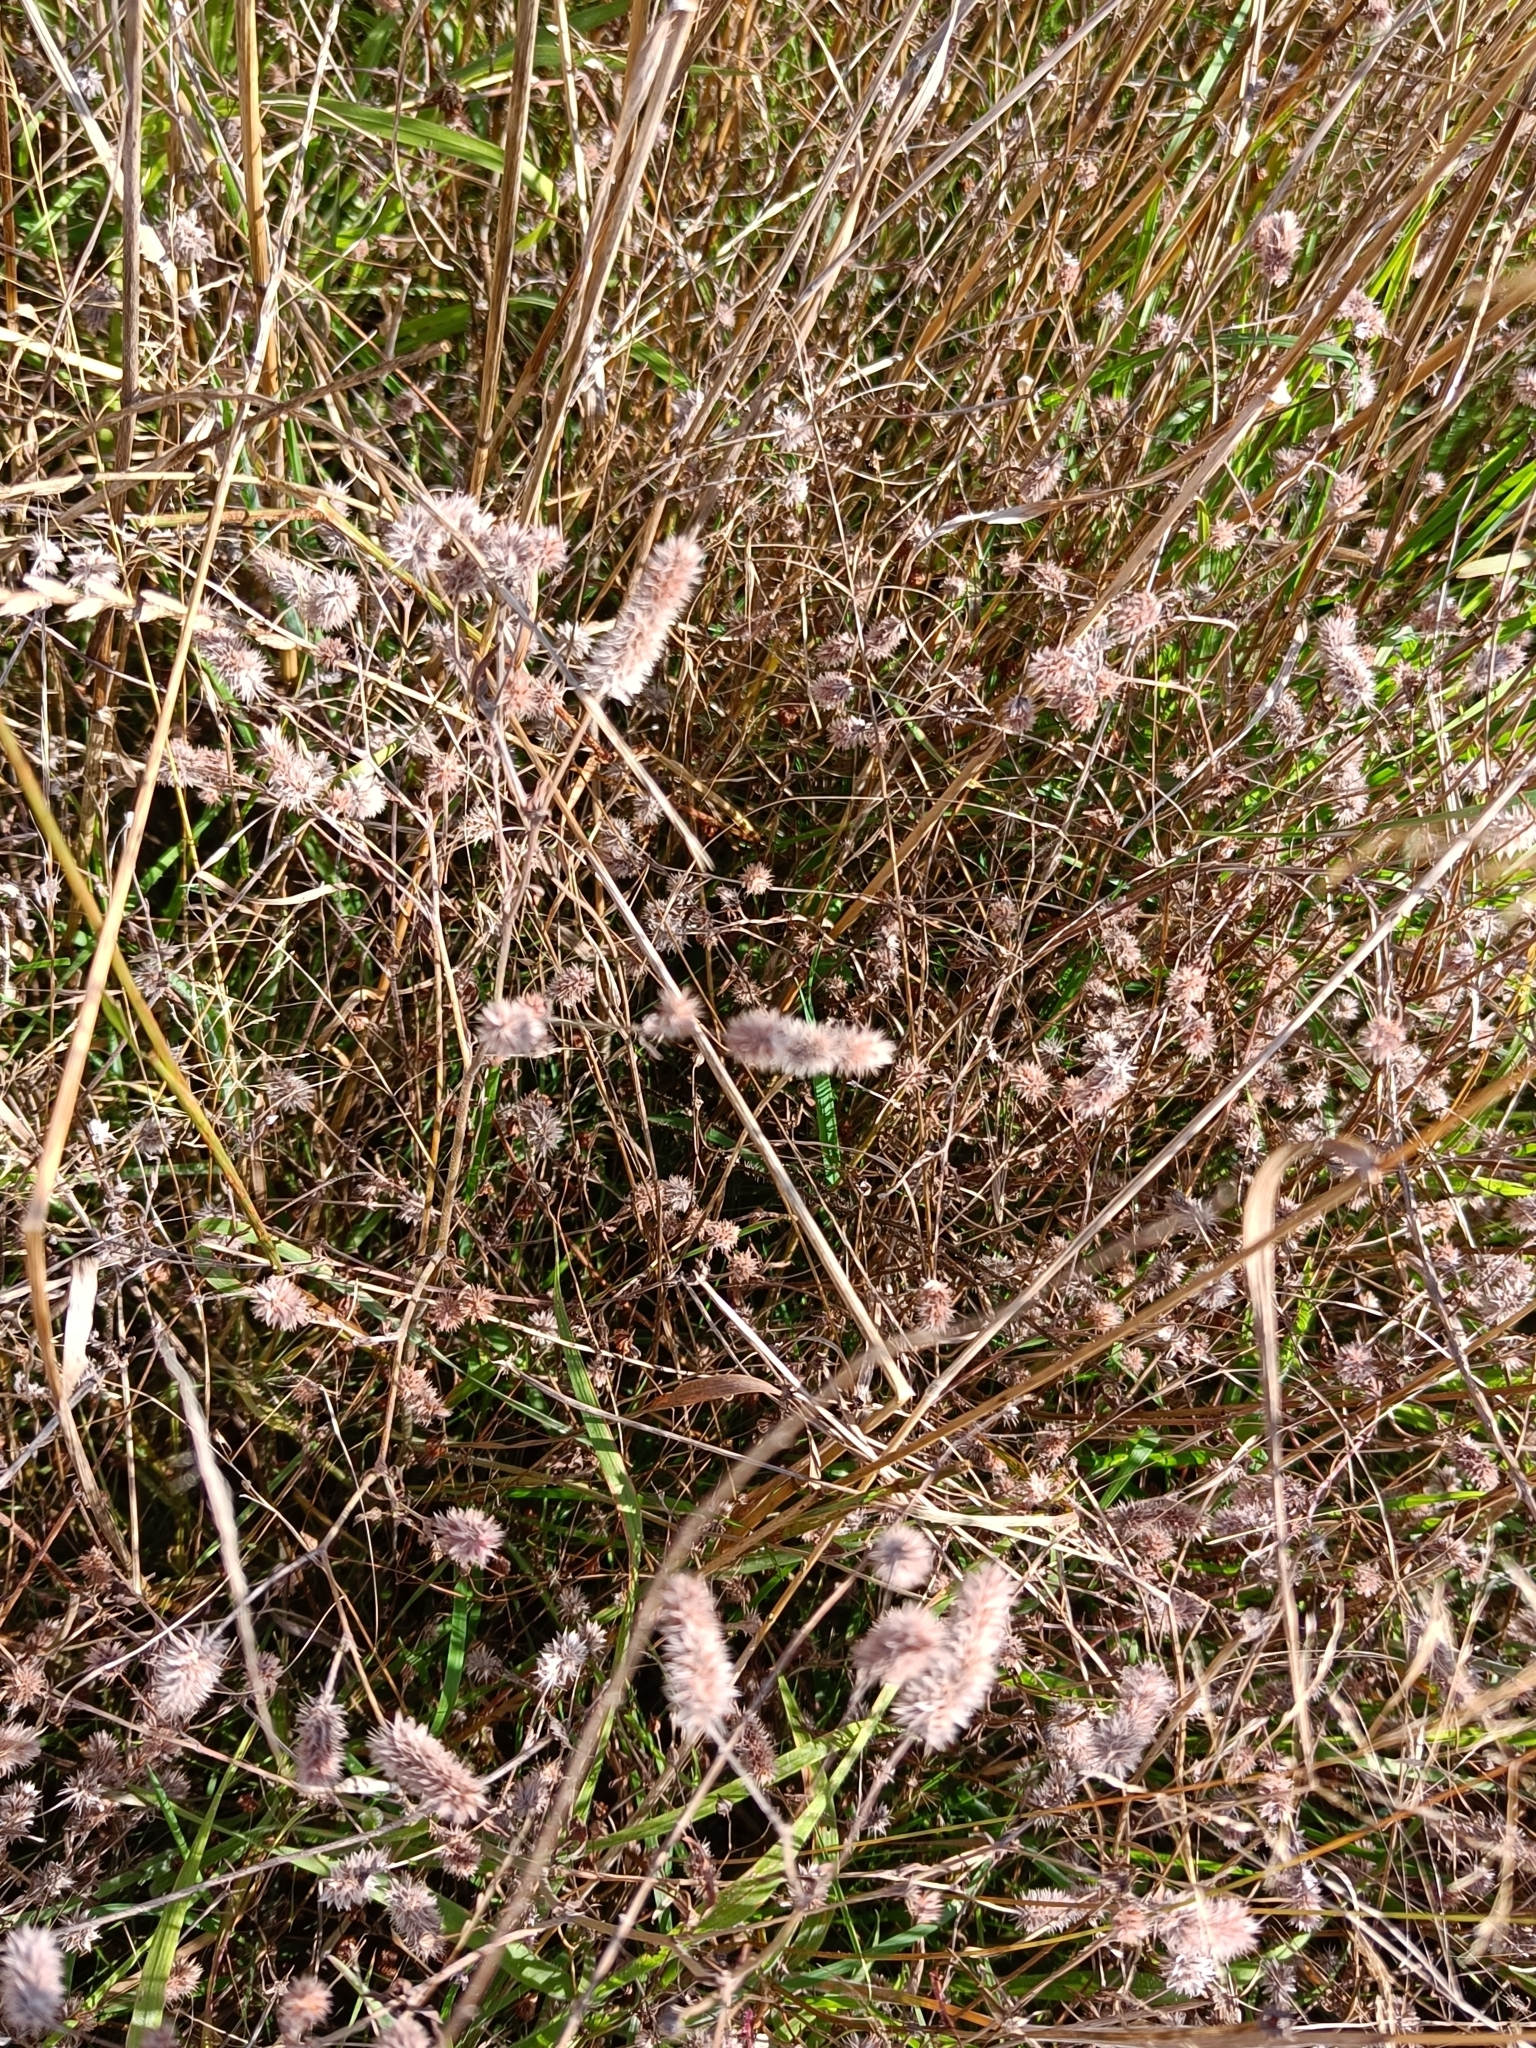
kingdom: Plantae
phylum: Tracheophyta
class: Magnoliopsida
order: Fabales
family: Fabaceae
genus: Trifolium
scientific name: Trifolium arvense
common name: Hare's-foot clover
